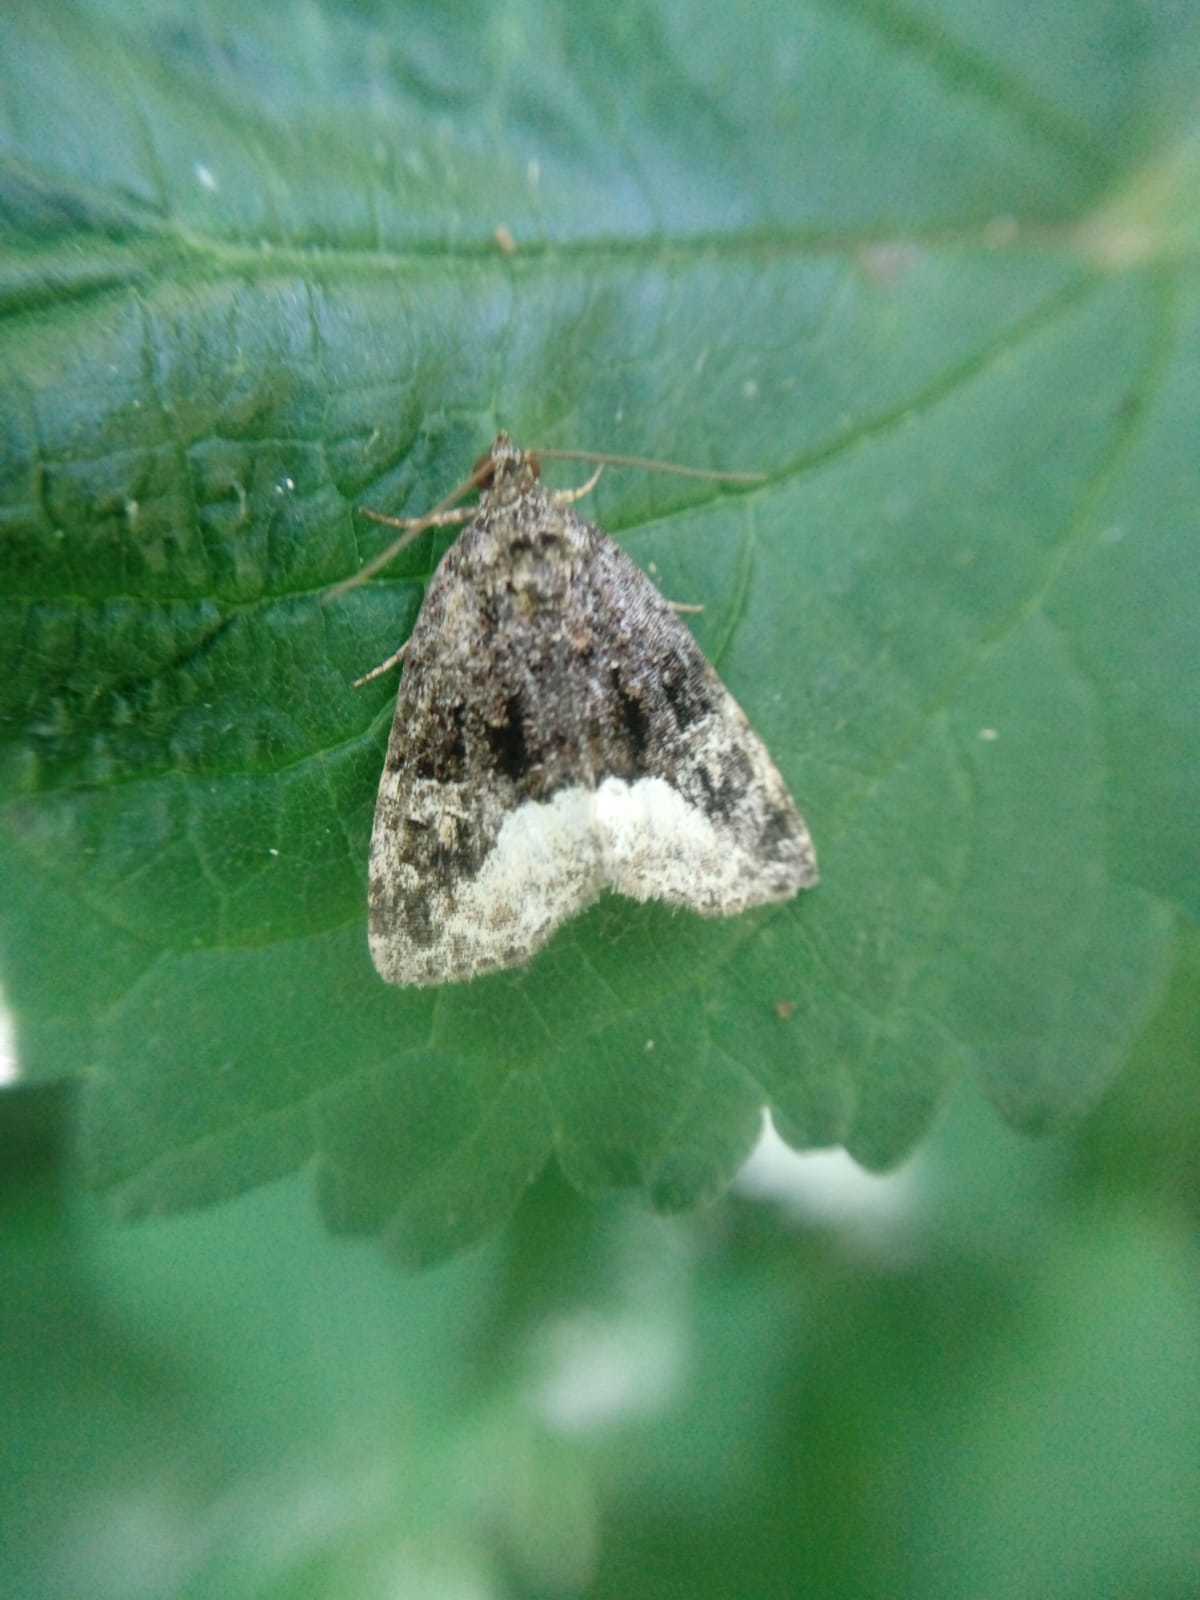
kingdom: Animalia
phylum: Arthropoda
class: Insecta
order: Lepidoptera
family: Noctuidae
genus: Deltote
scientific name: Deltote pygarga
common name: Marbled white spot
